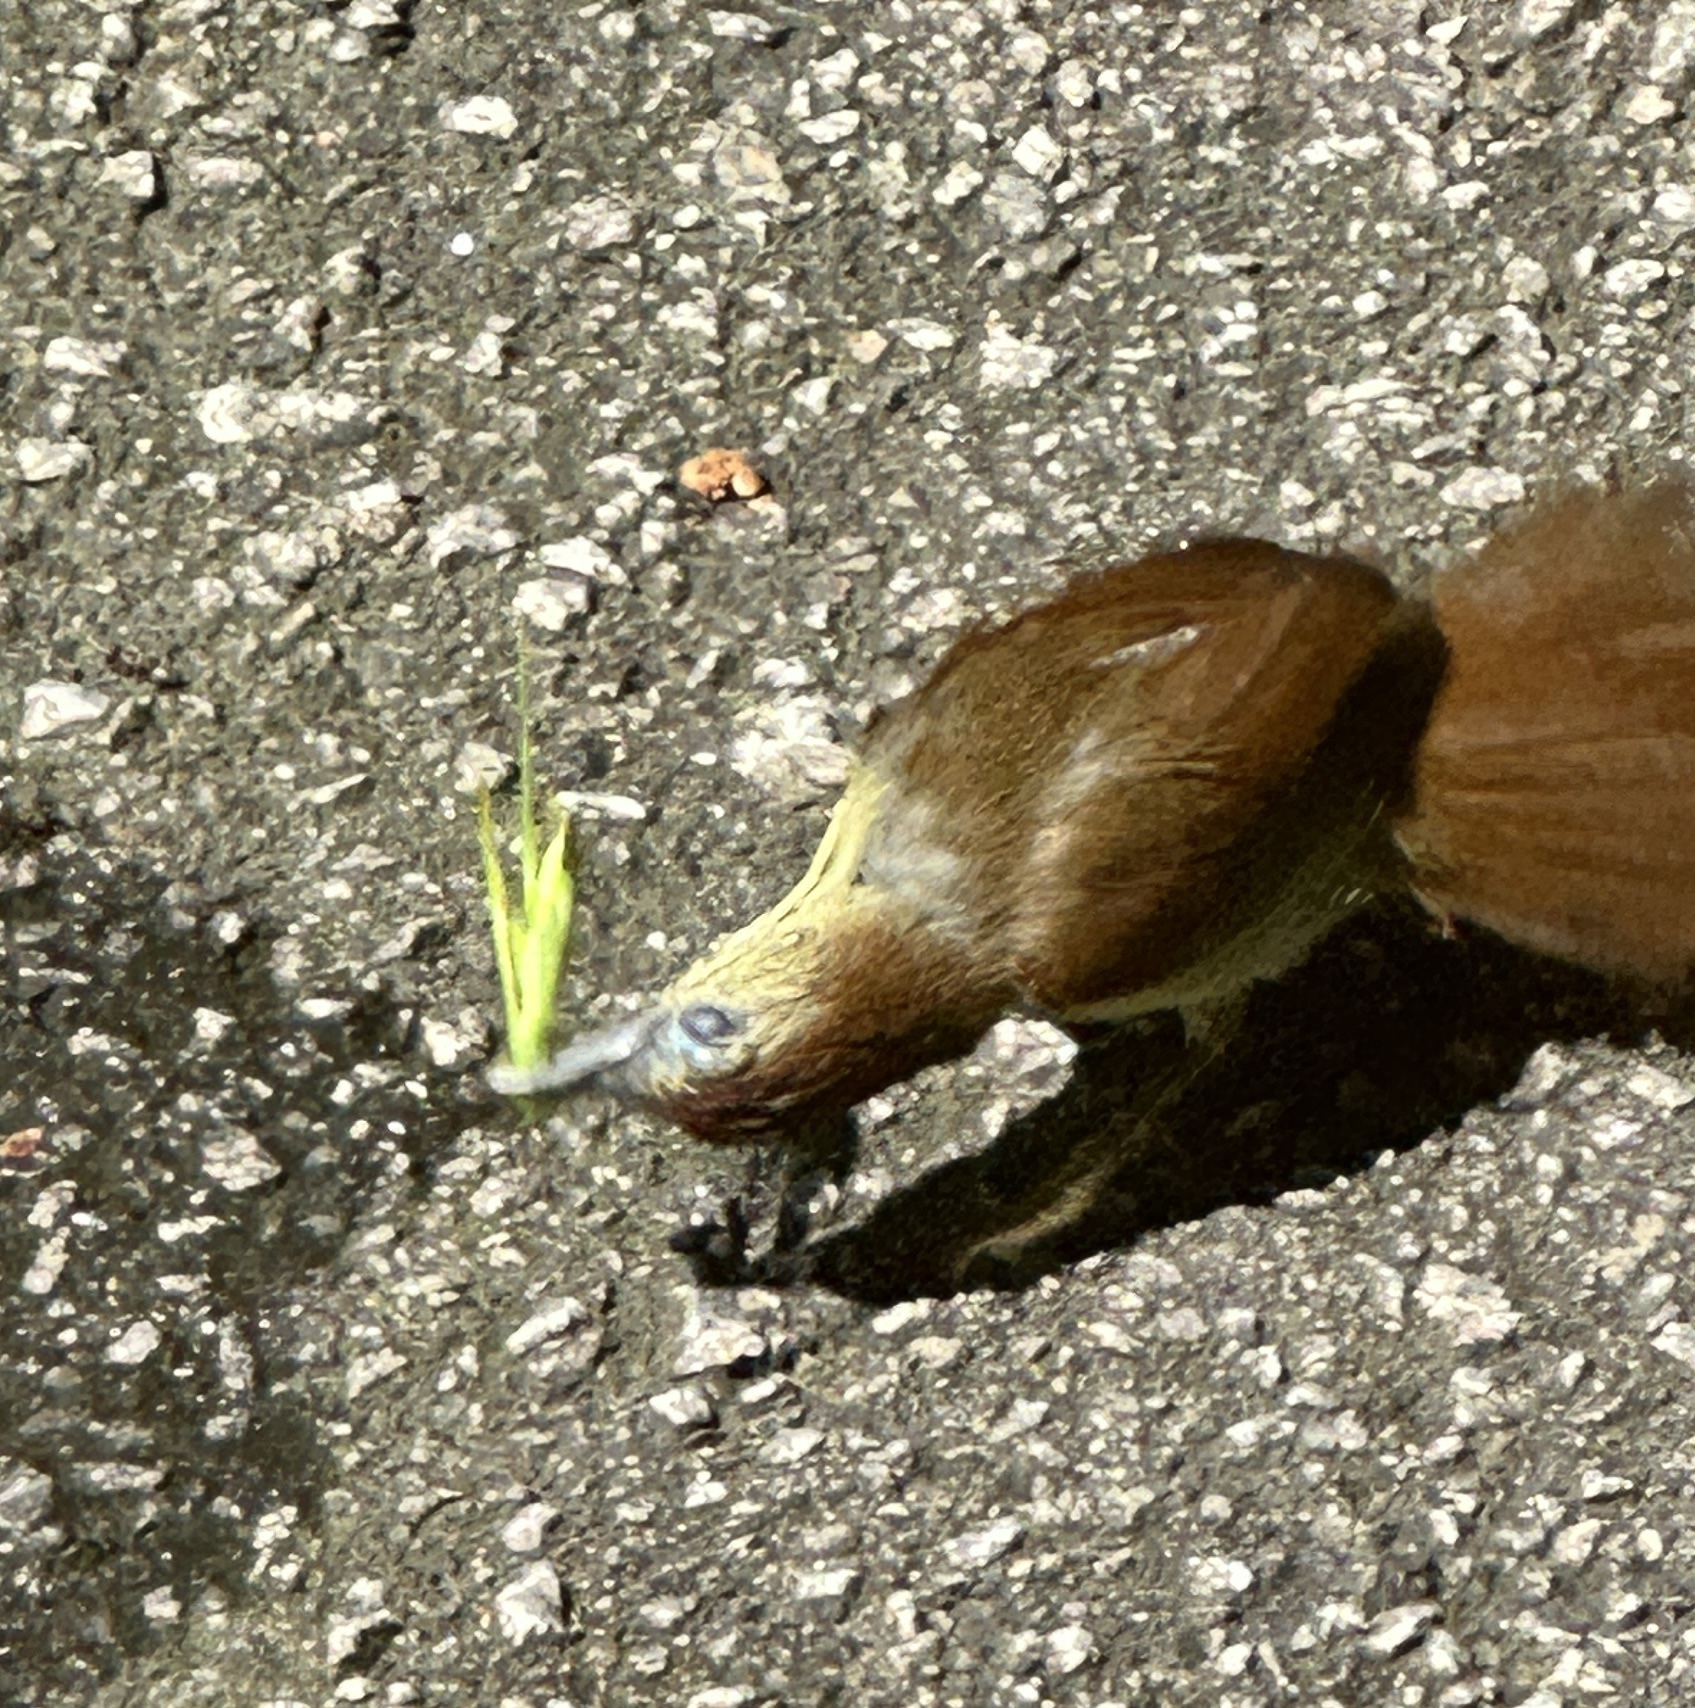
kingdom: Animalia
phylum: Chordata
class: Aves
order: Passeriformes
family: Timaliidae
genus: Macronus
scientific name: Macronus gularis
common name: Striped tit-babbler
